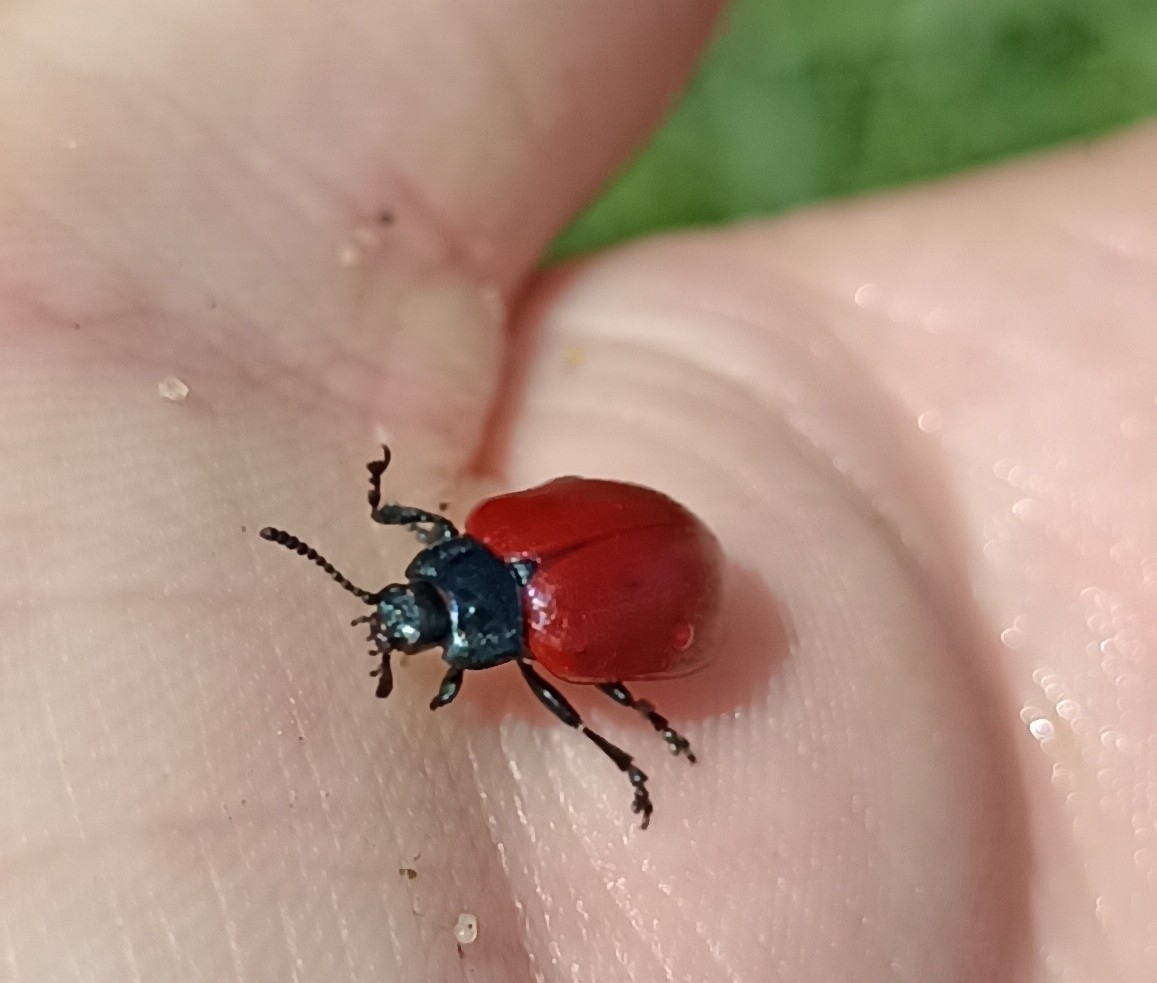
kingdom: Animalia
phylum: Arthropoda
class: Insecta
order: Coleoptera
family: Chrysomelidae
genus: Chrysomela
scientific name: Chrysomela populi
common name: Red poplar leaf beetle
